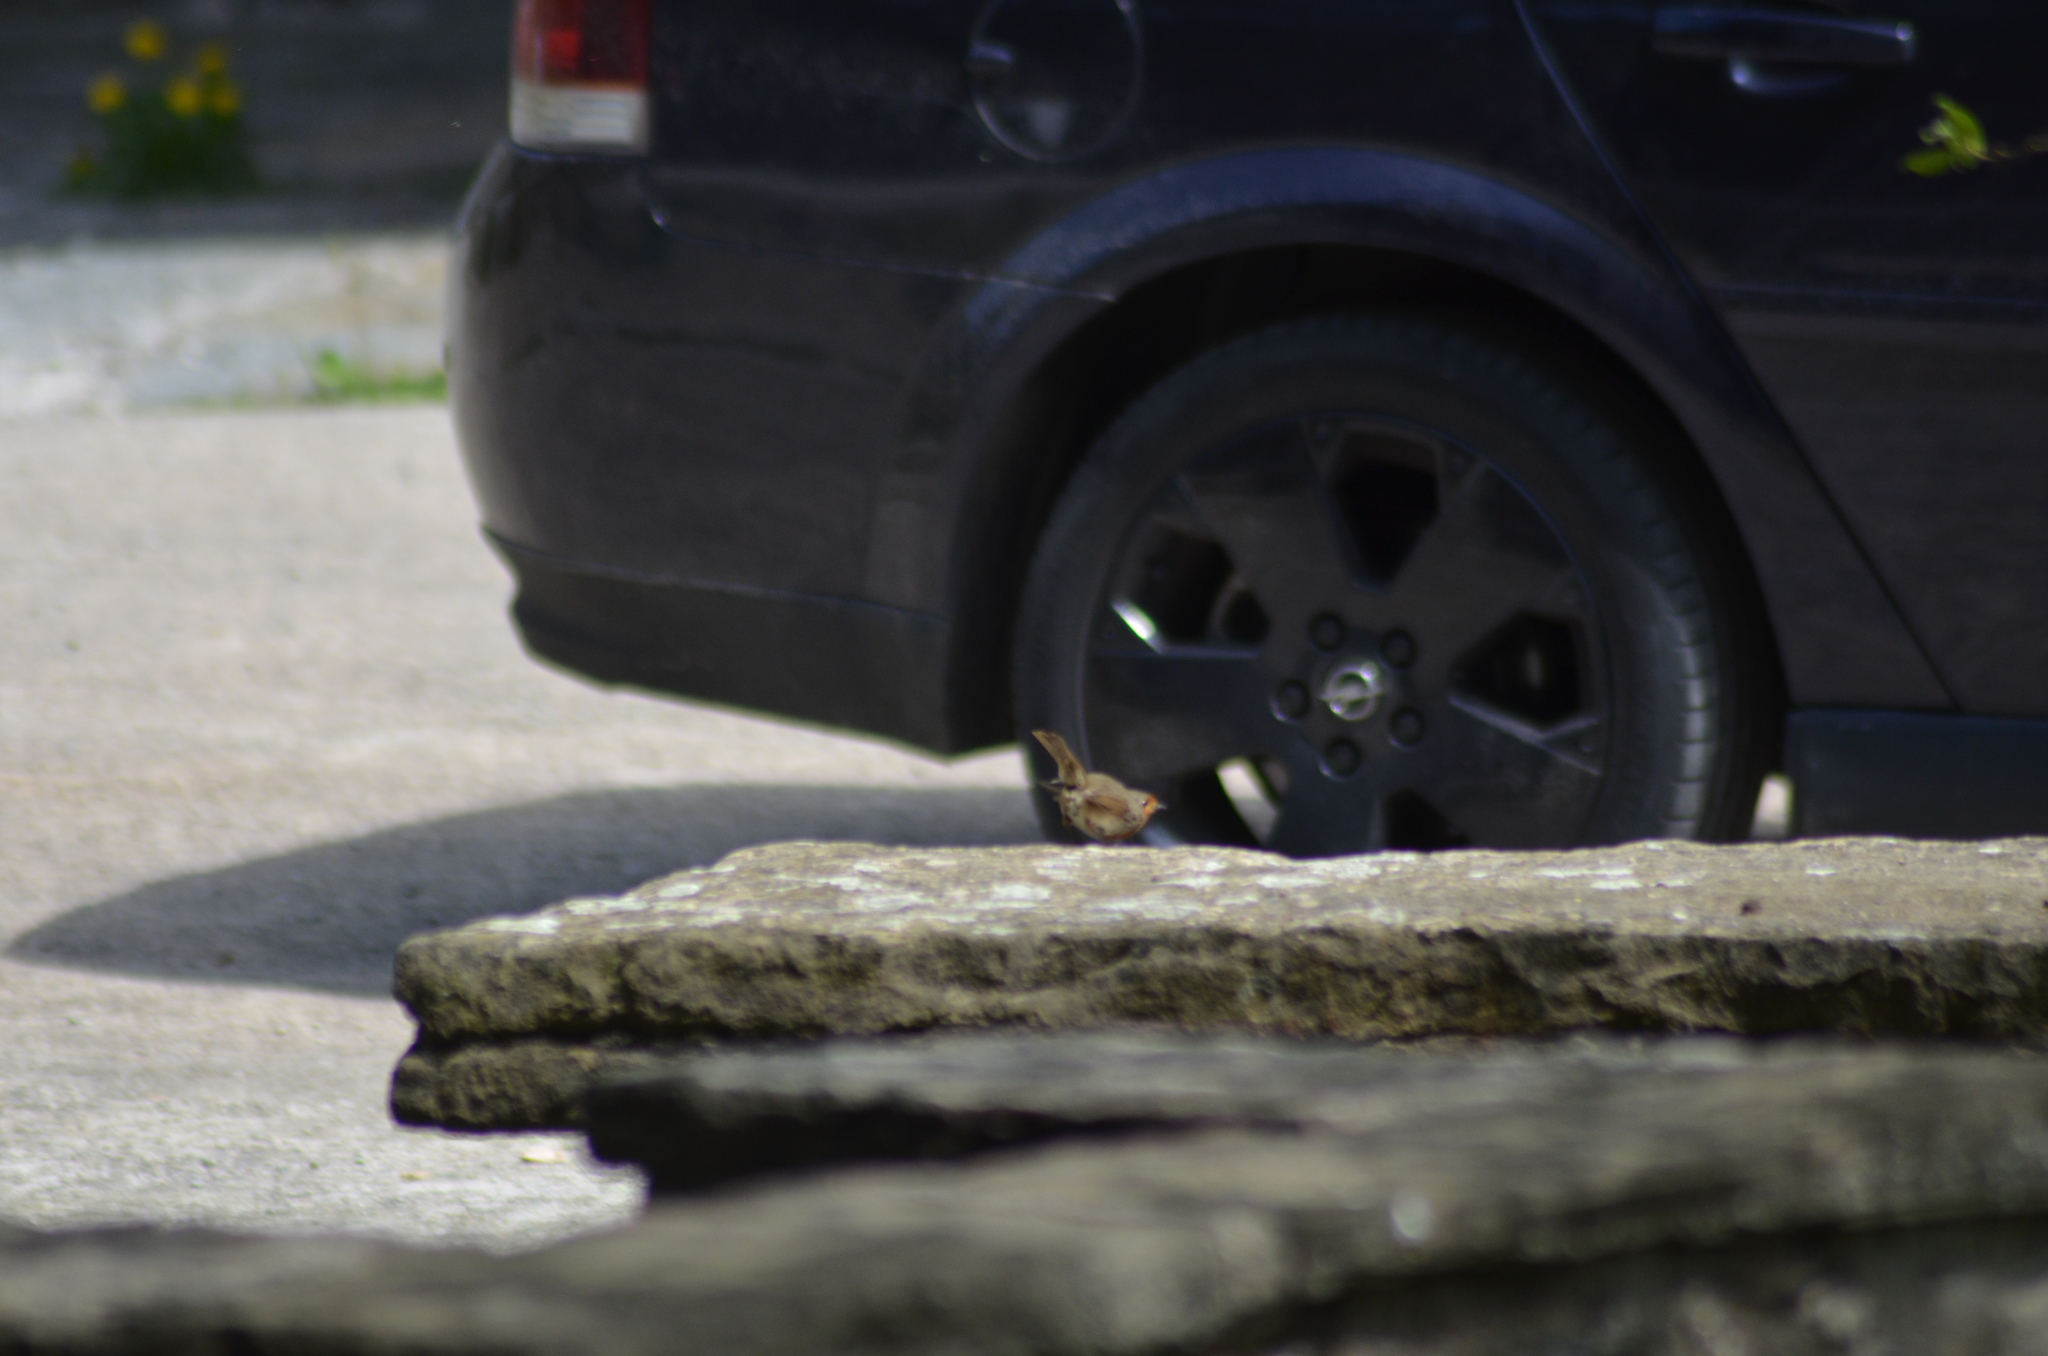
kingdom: Animalia
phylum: Chordata
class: Aves
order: Passeriformes
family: Muscicapidae
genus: Erithacus
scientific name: Erithacus rubecula
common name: European robin
